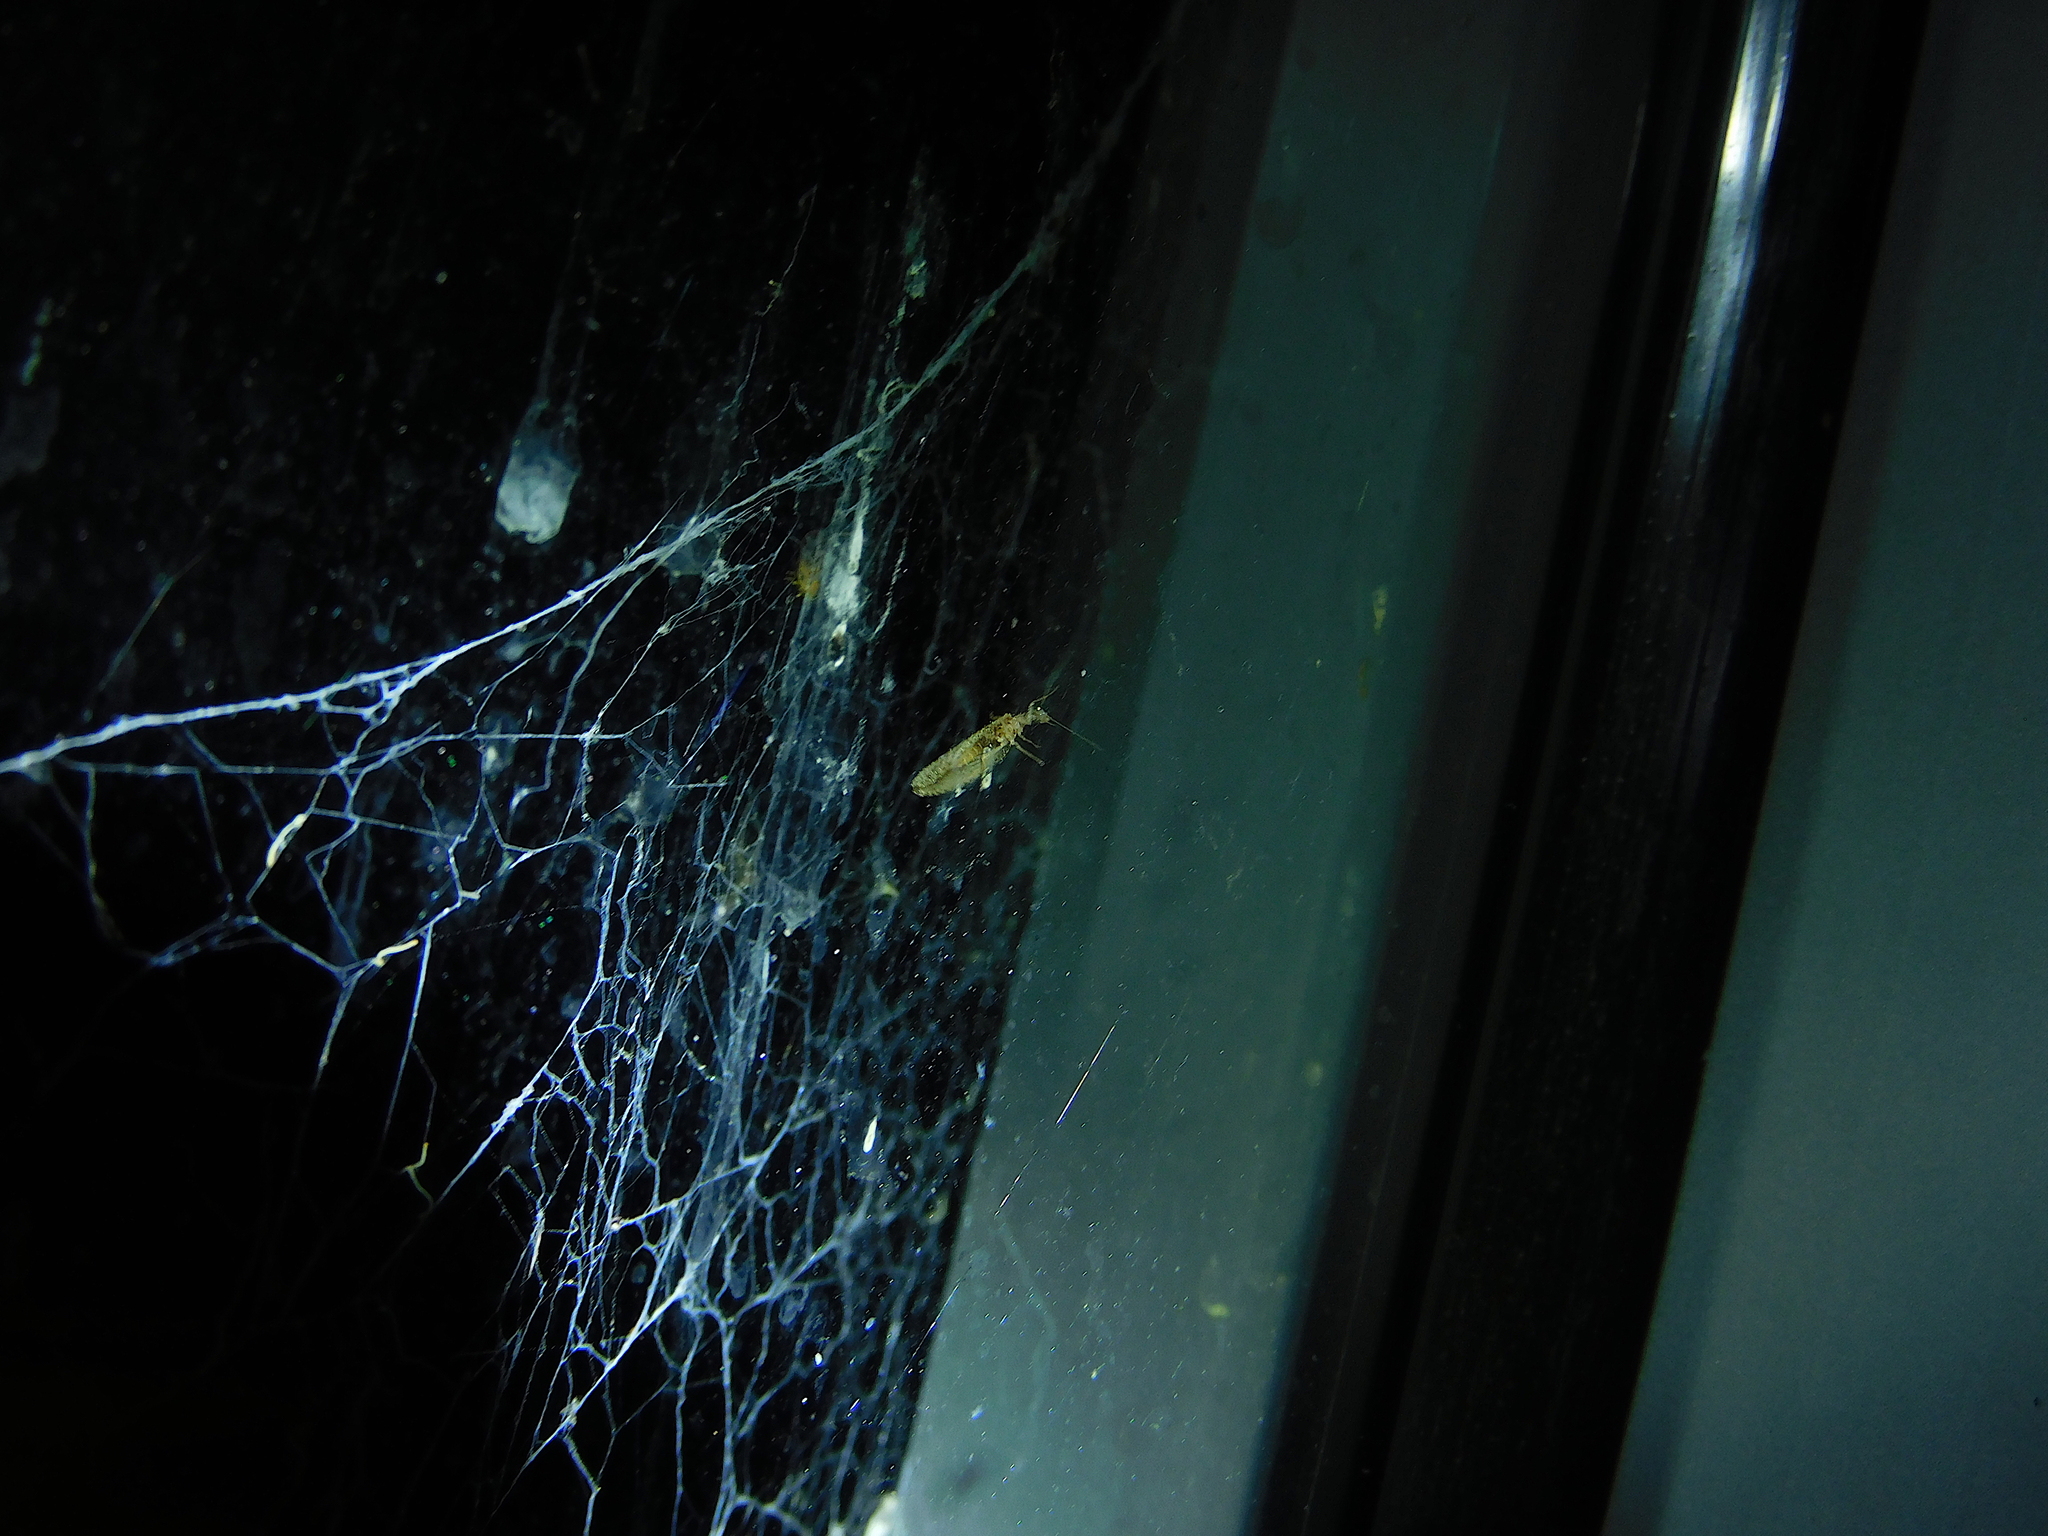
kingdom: Animalia
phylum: Arthropoda
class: Insecta
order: Neuroptera
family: Hemerobiidae
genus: Micromus
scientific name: Micromus tasmaniae
